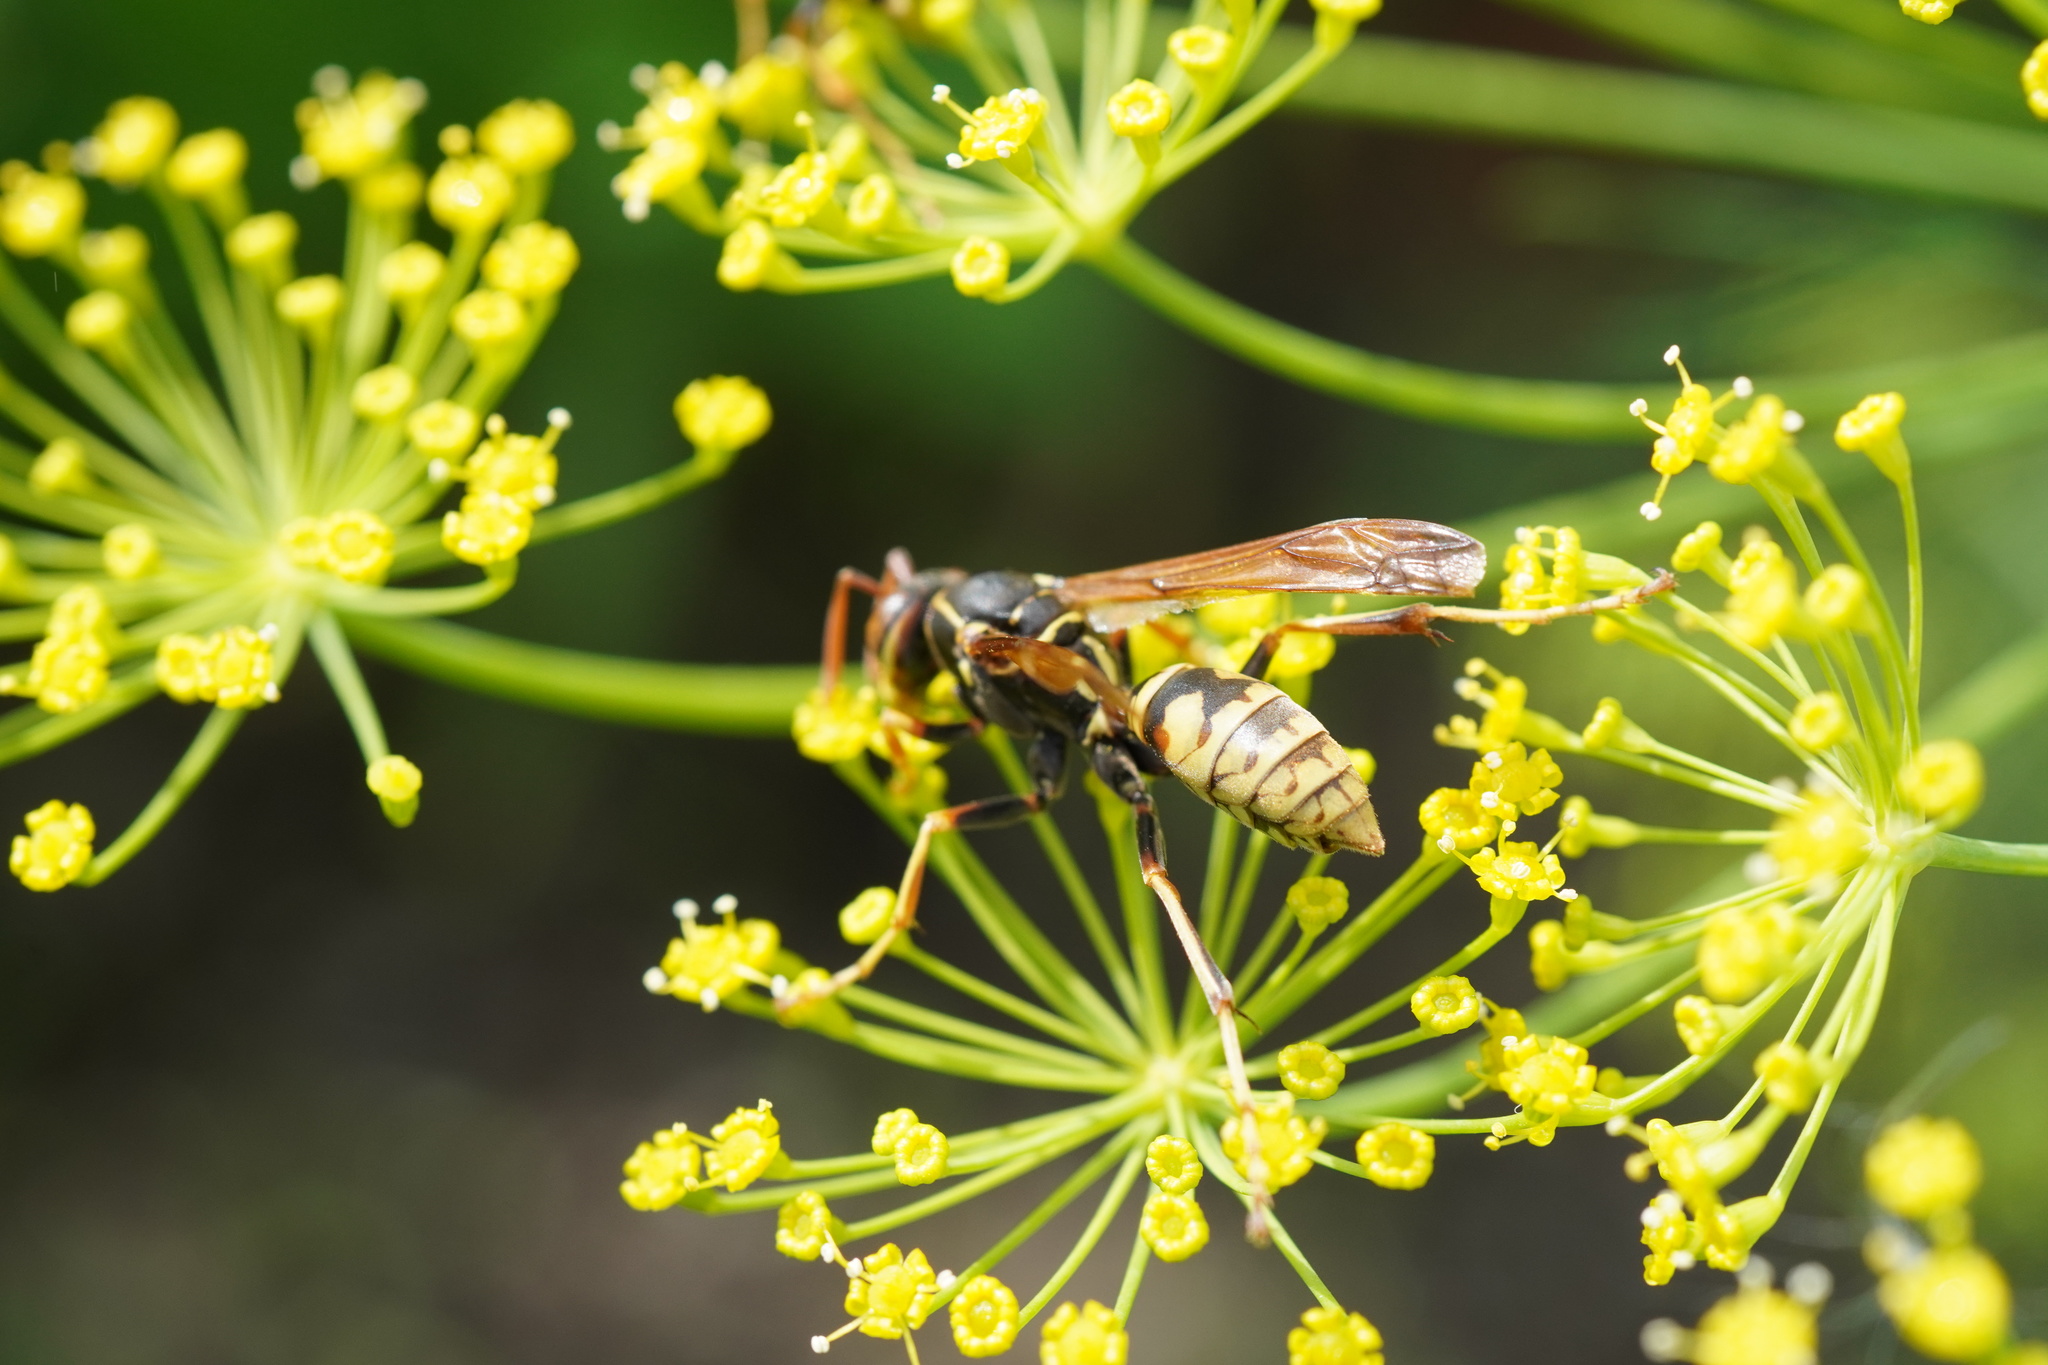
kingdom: Animalia
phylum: Arthropoda
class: Insecta
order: Hymenoptera
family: Eumenidae
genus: Polistes
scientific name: Polistes aurifer
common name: Paper wasp
